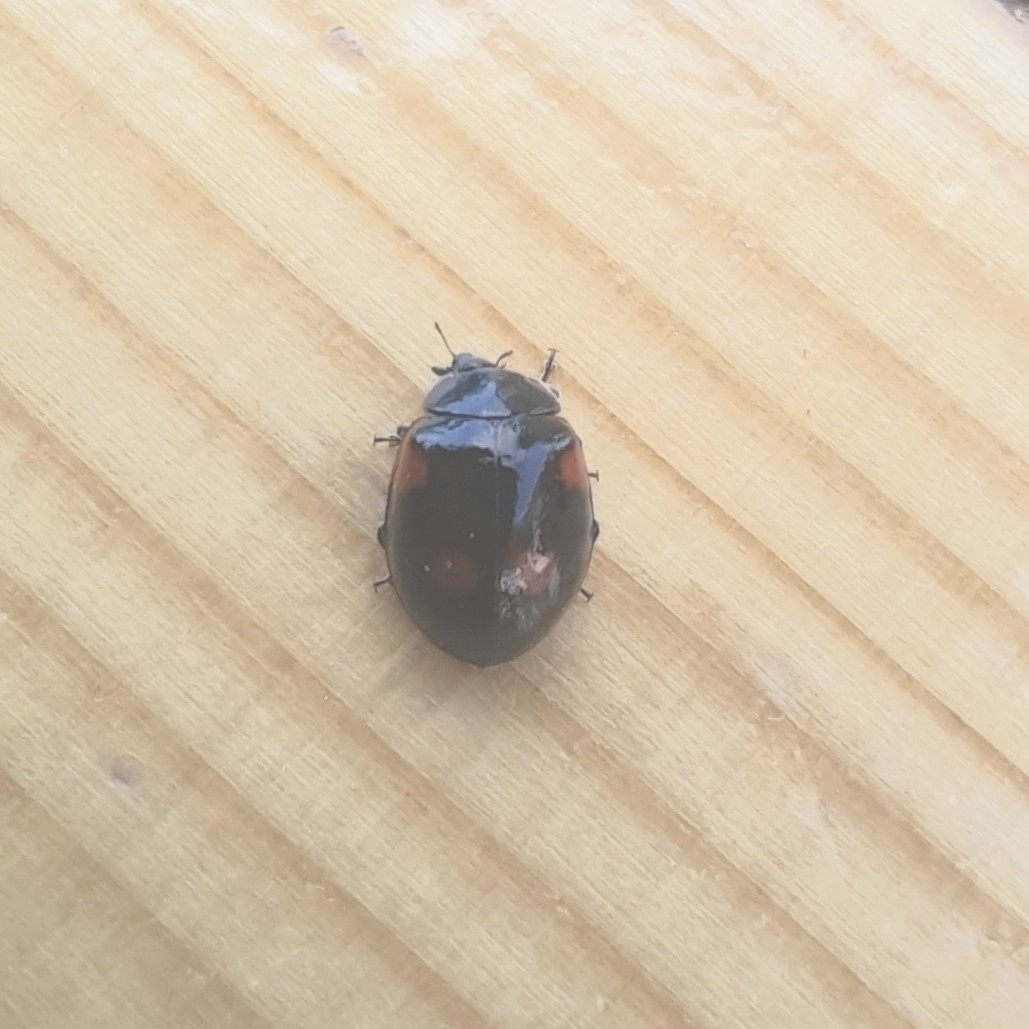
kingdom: Animalia
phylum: Arthropoda
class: Insecta
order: Coleoptera
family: Coccinellidae
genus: Adalia
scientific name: Adalia bipunctata
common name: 2-spot ladybird
